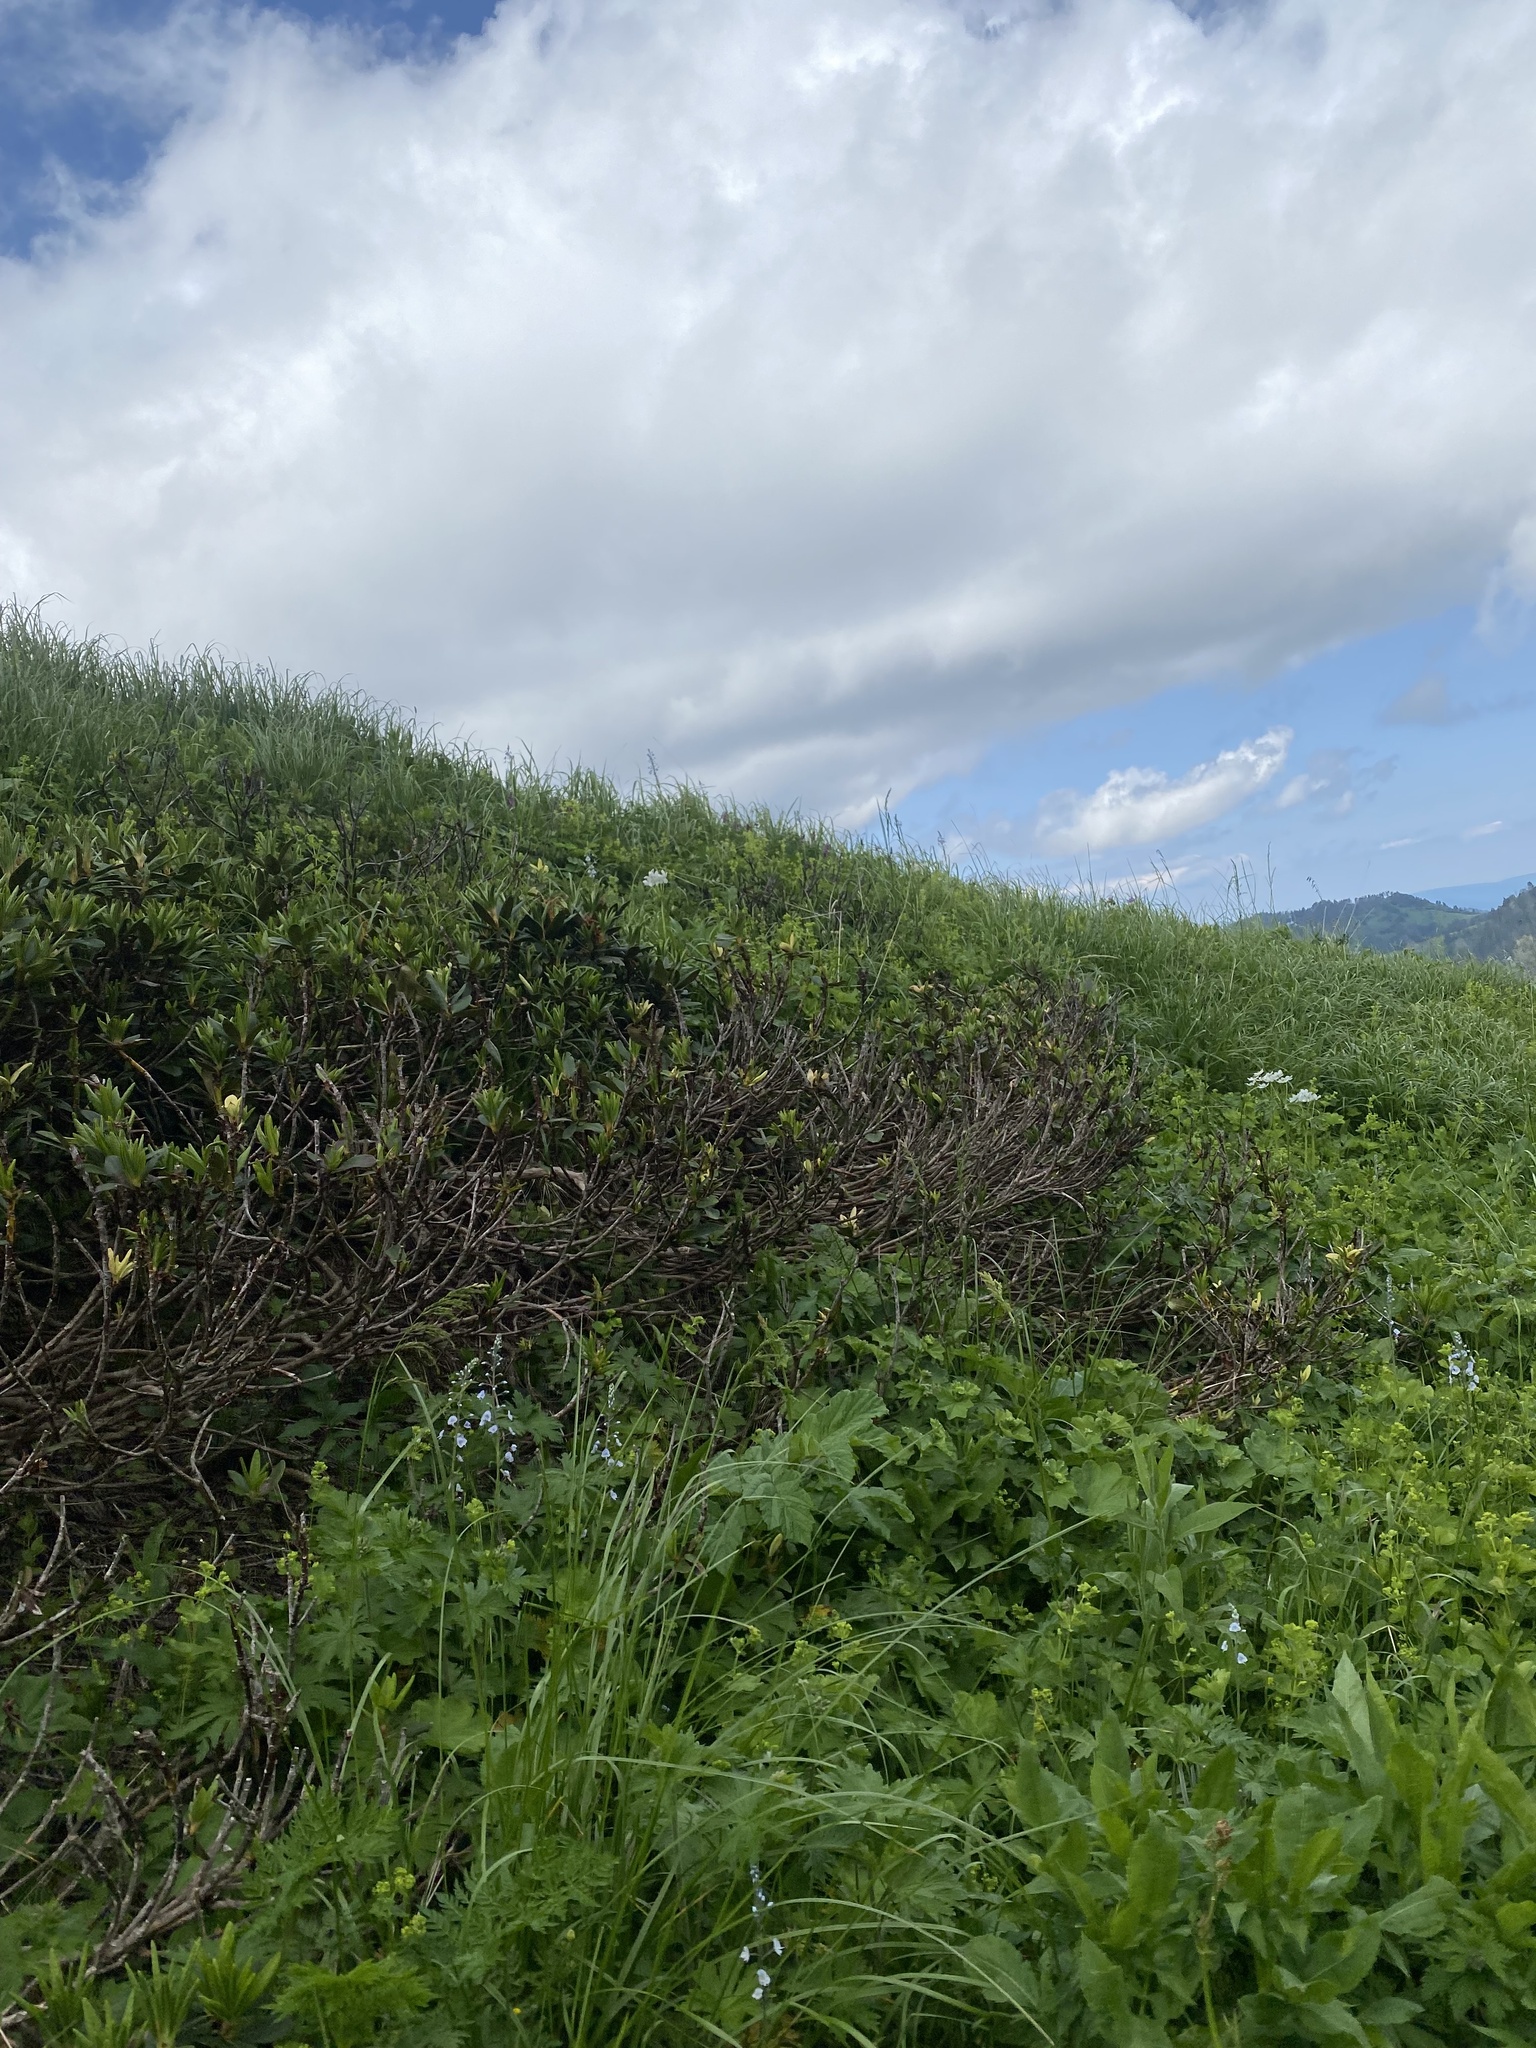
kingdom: Plantae
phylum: Tracheophyta
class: Magnoliopsida
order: Ericales
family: Ericaceae
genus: Rhododendron
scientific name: Rhododendron caucasicum
